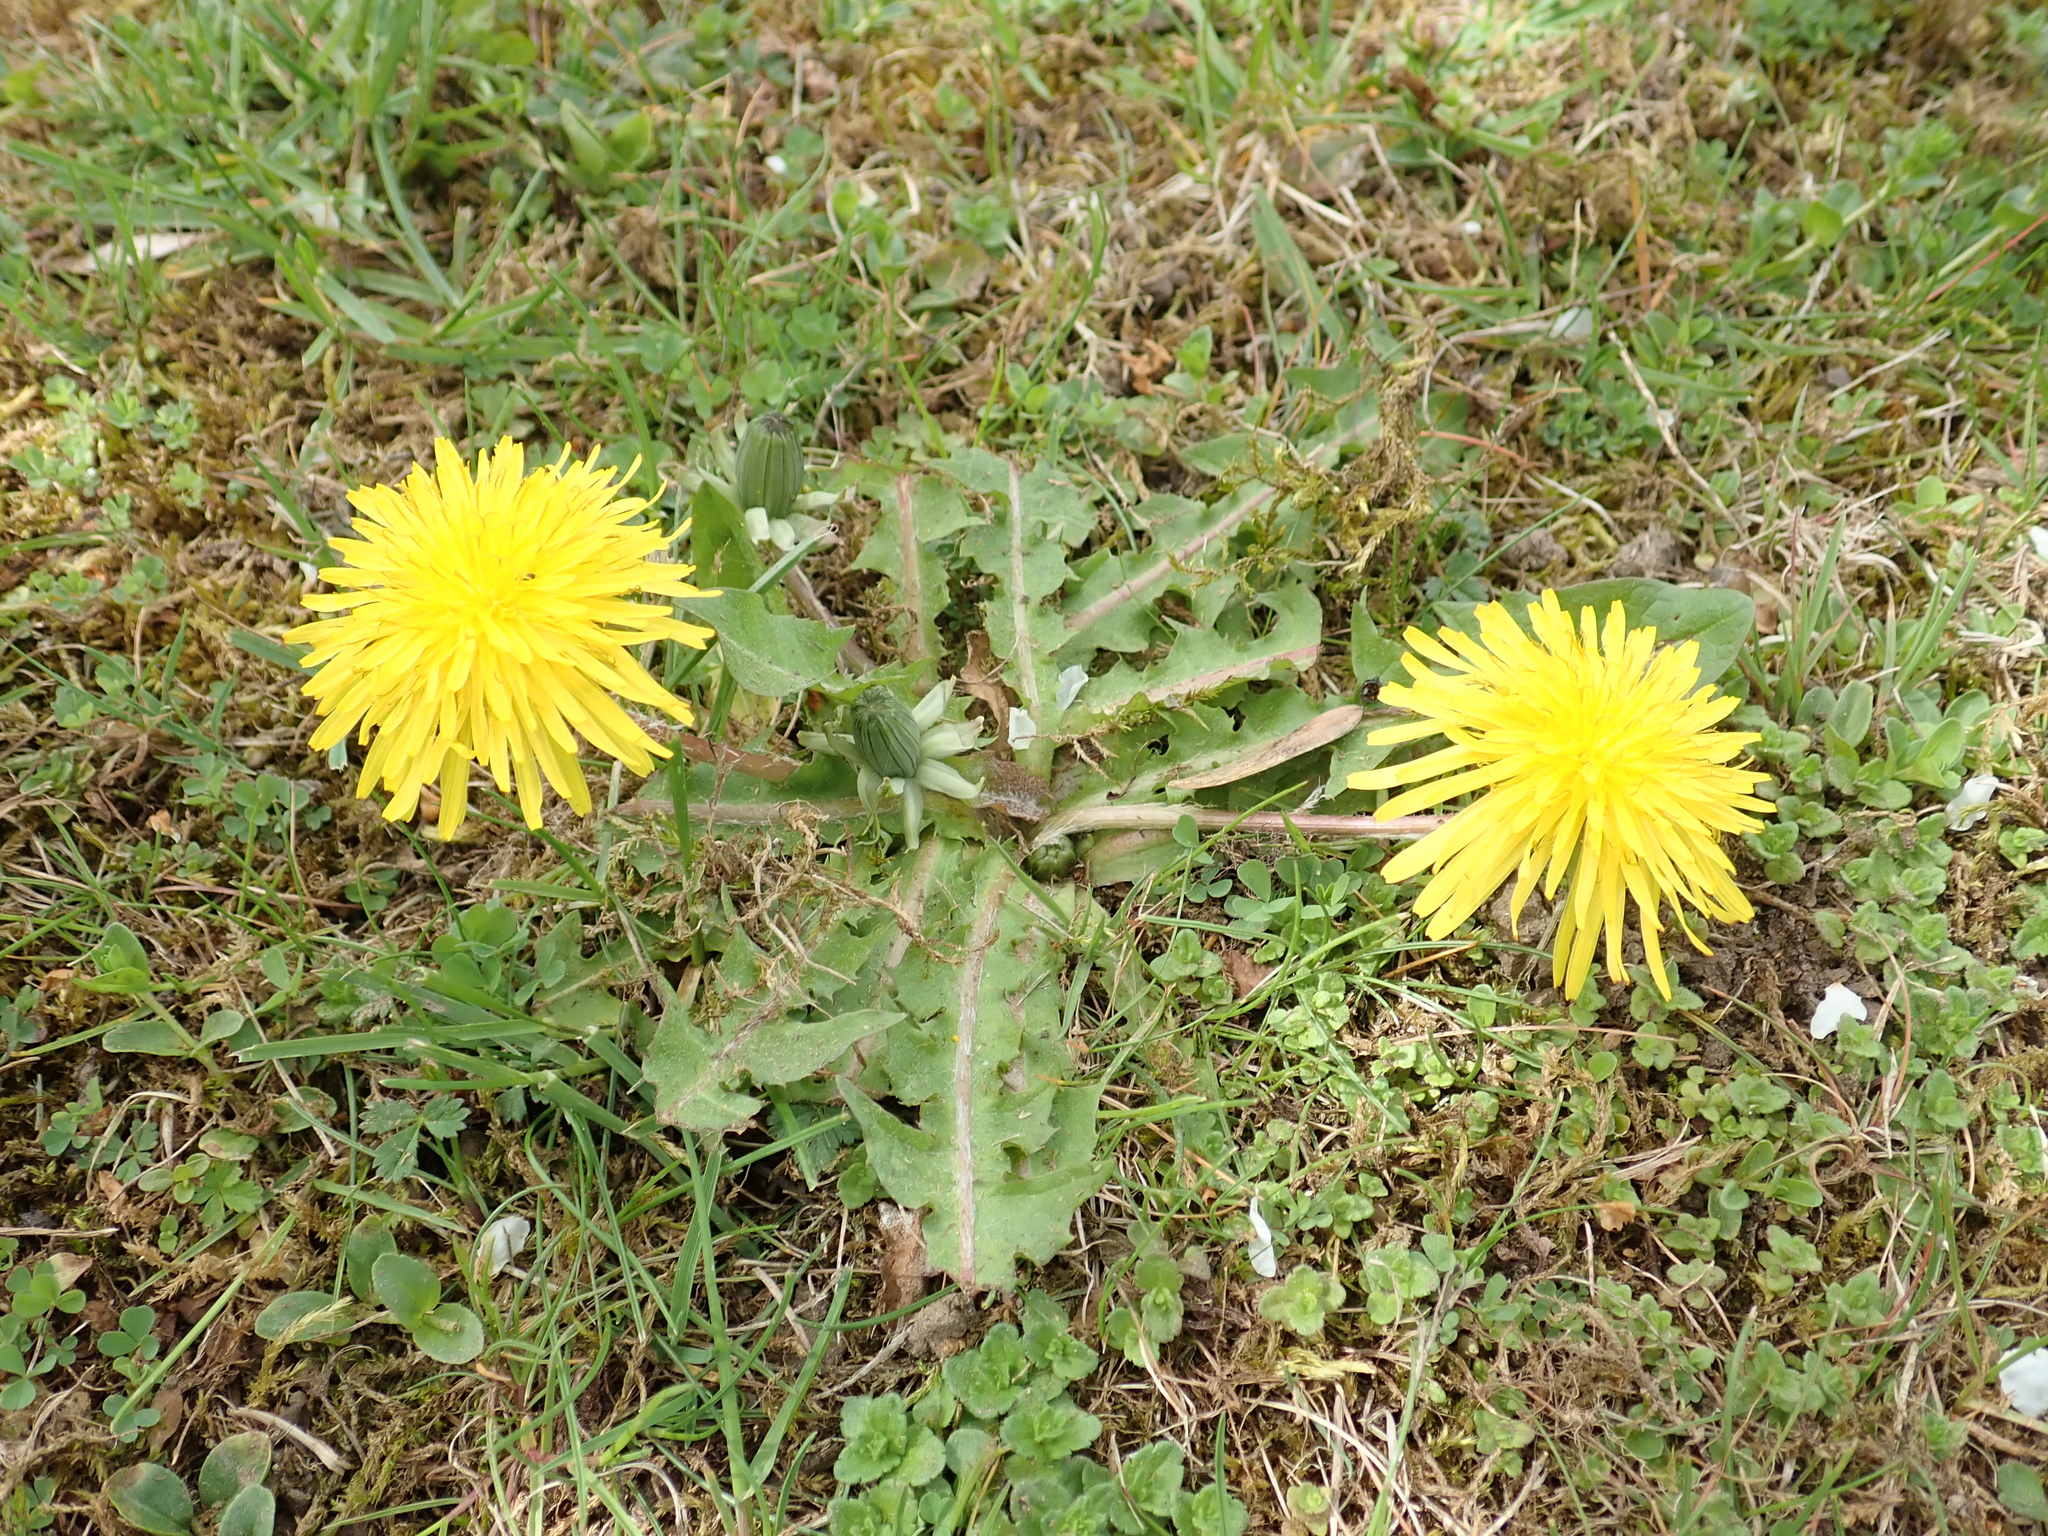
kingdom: Plantae
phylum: Tracheophyta
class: Magnoliopsida
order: Asterales
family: Asteraceae
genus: Taraxacum
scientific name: Taraxacum officinale
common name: Common dandelion
